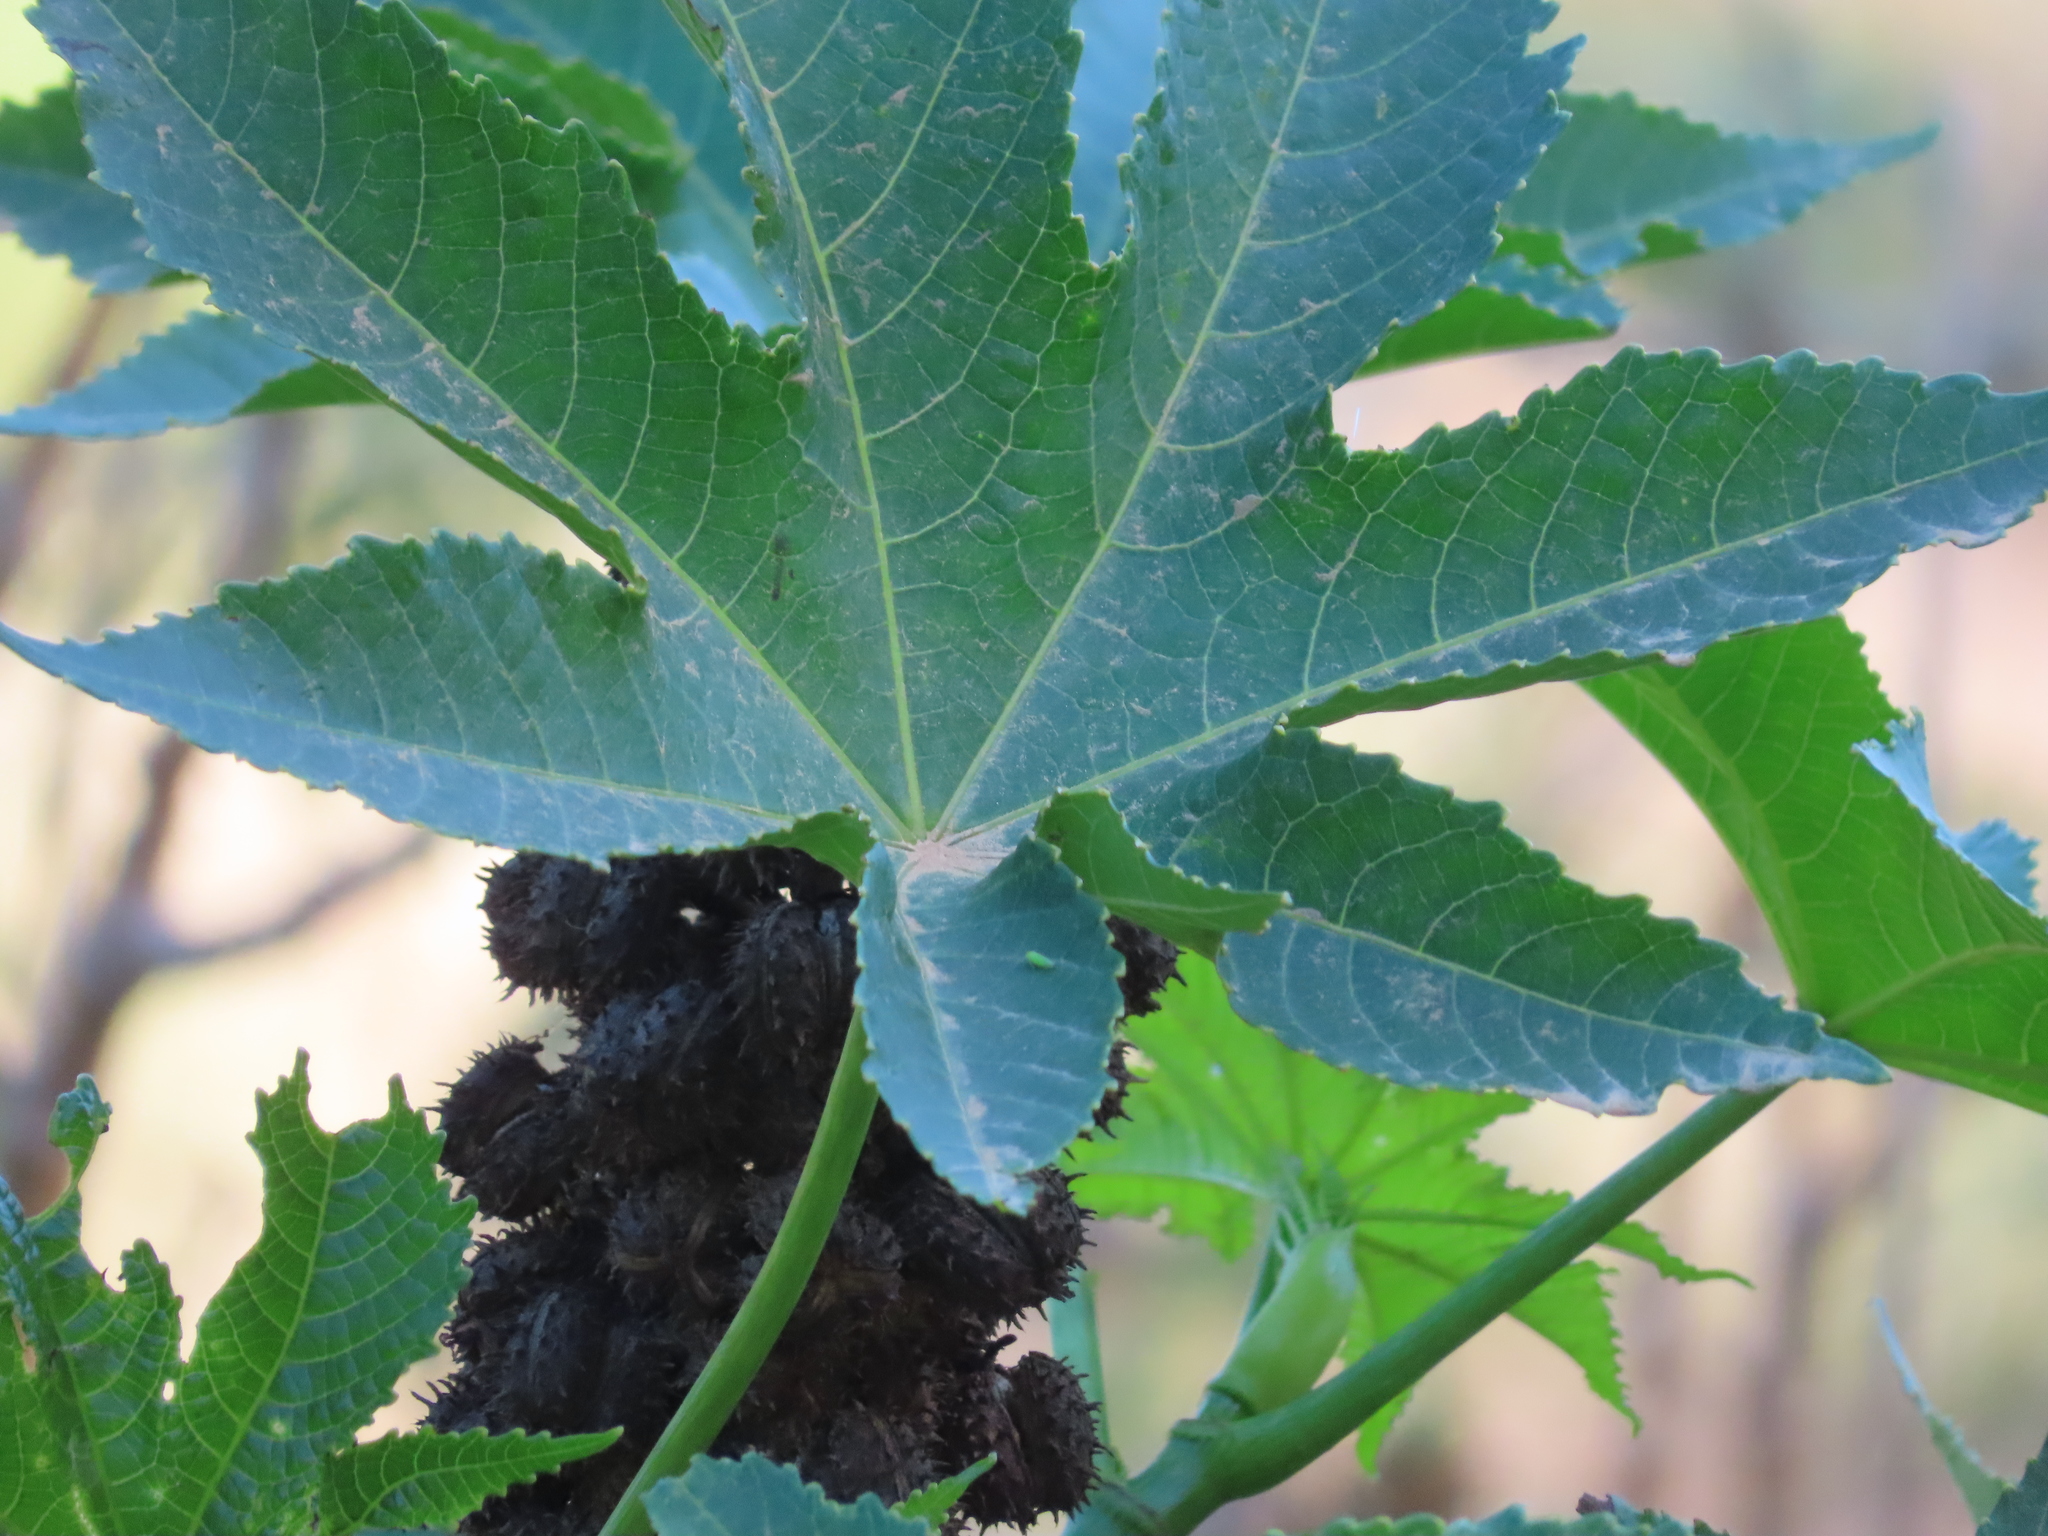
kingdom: Plantae
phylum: Tracheophyta
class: Magnoliopsida
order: Malpighiales
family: Euphorbiaceae
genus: Ricinus
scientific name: Ricinus communis
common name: Castor-oil-plant
